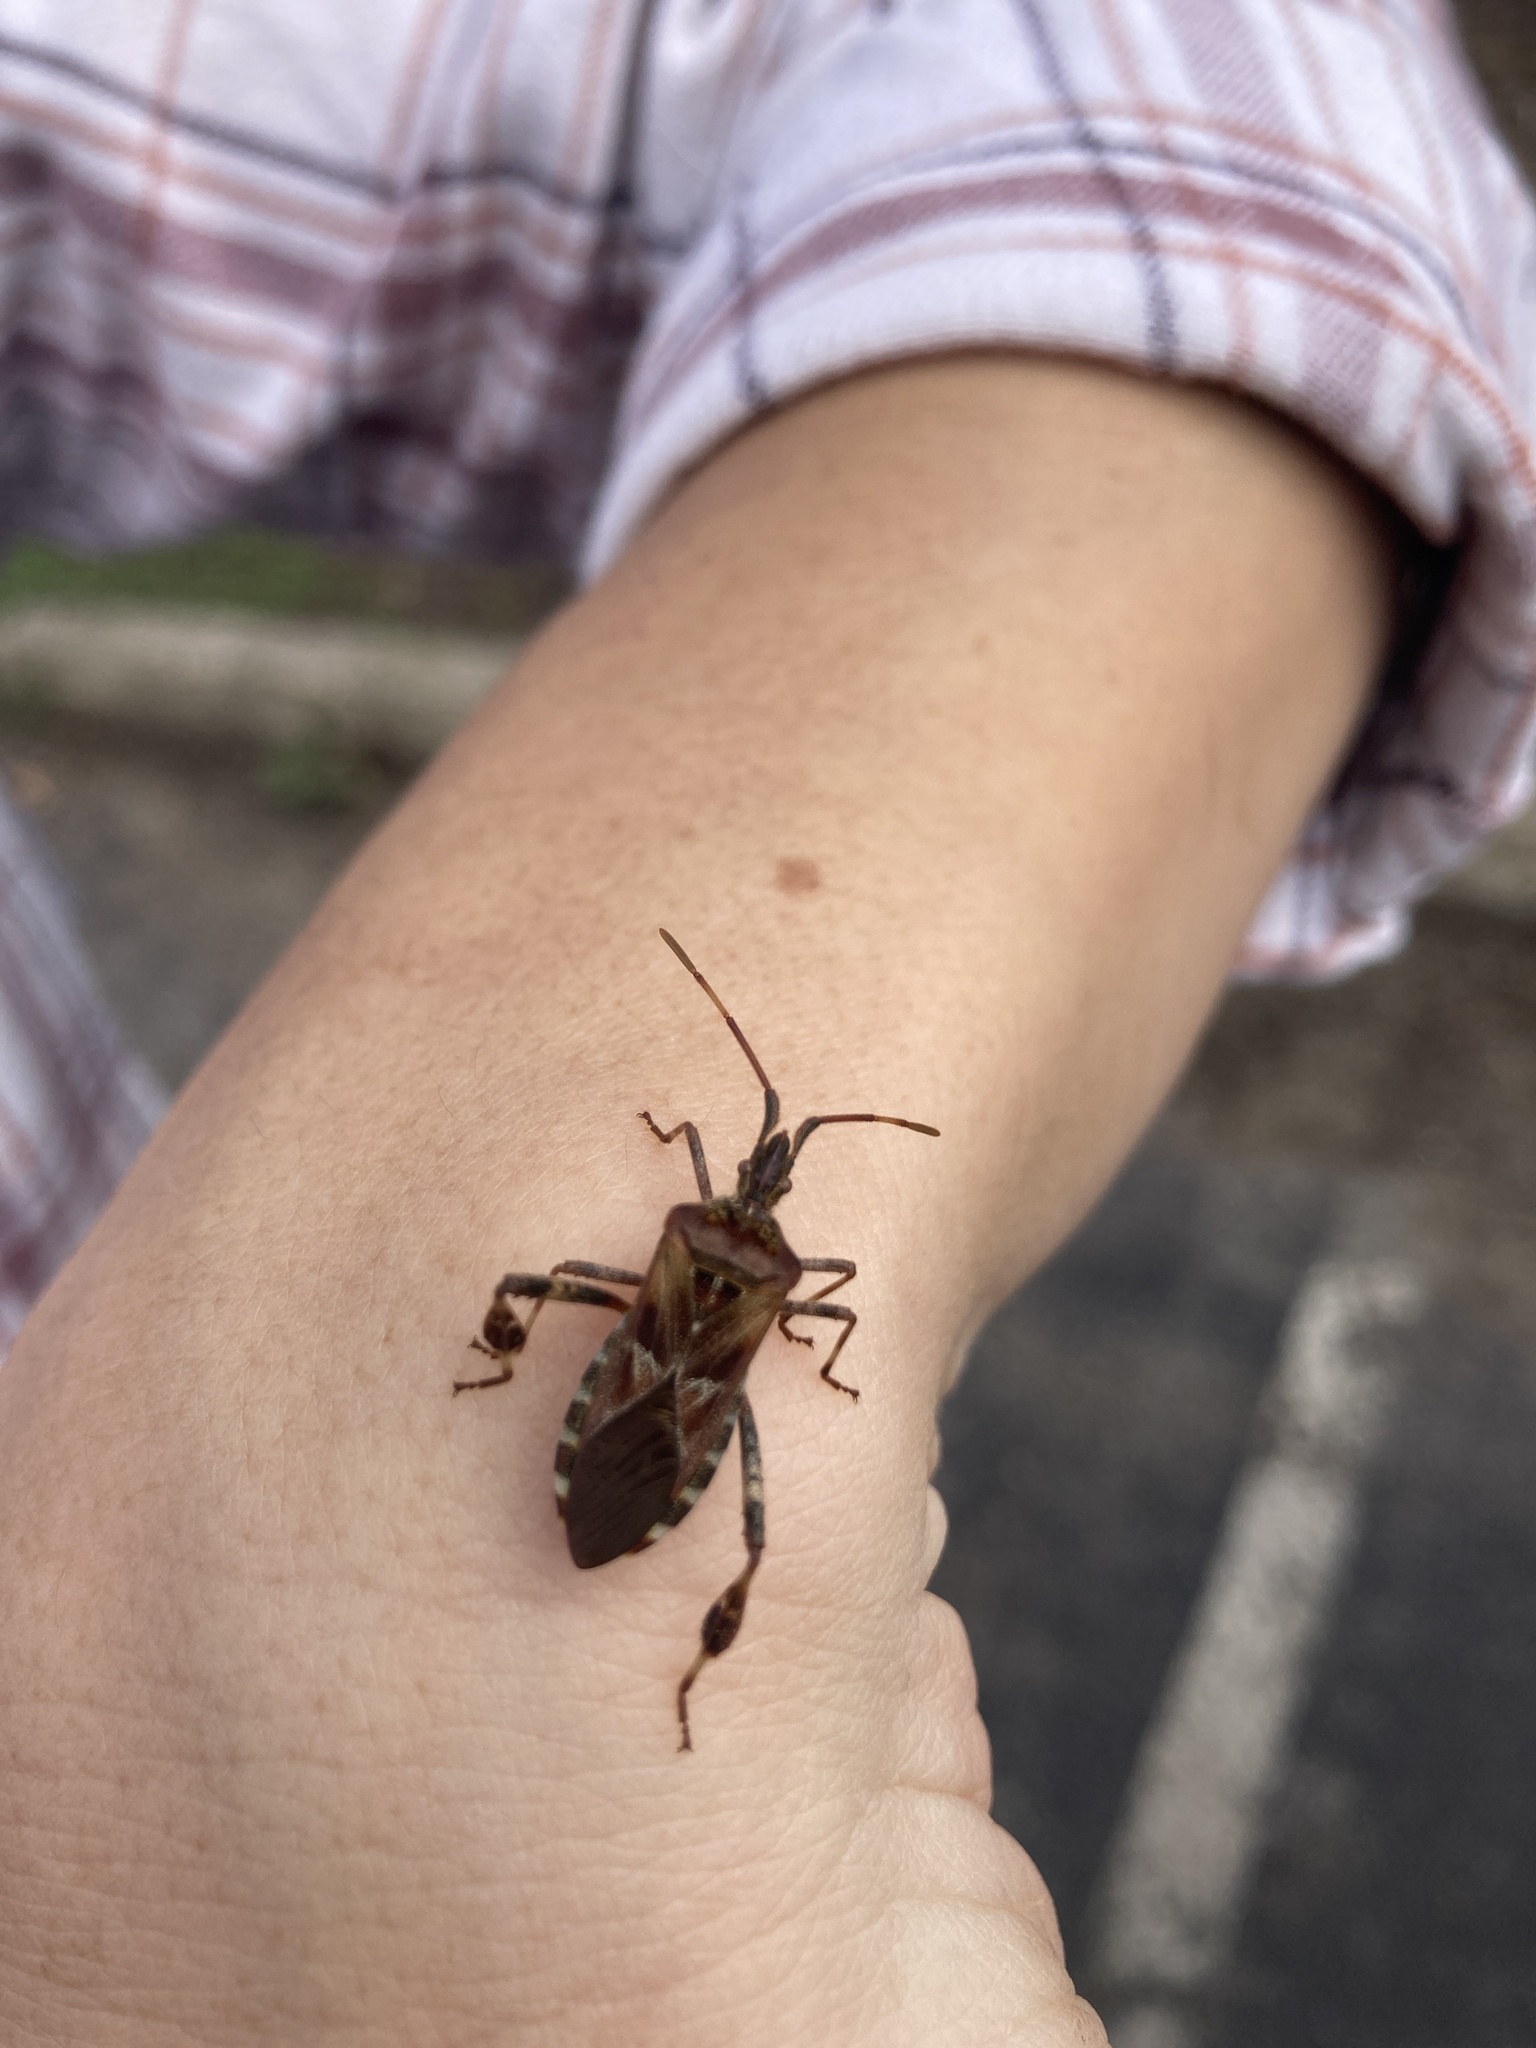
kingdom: Animalia
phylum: Arthropoda
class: Insecta
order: Hemiptera
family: Coreidae
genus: Leptoglossus
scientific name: Leptoglossus occidentalis
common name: Western conifer-seed bug
